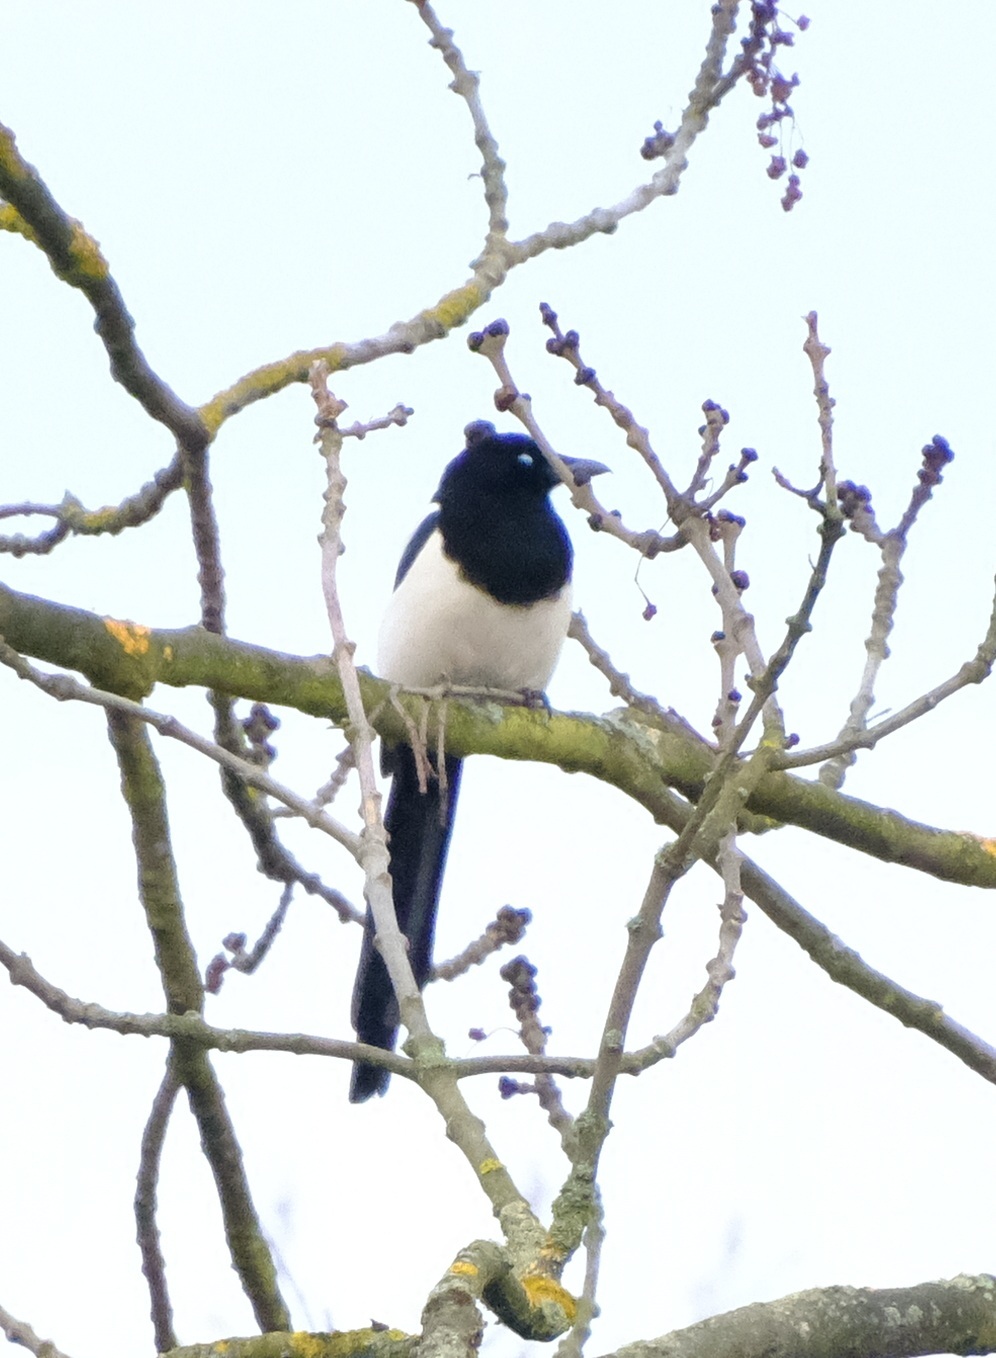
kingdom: Animalia
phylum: Chordata
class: Aves
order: Passeriformes
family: Corvidae
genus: Pica
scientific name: Pica pica
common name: Eurasian magpie
